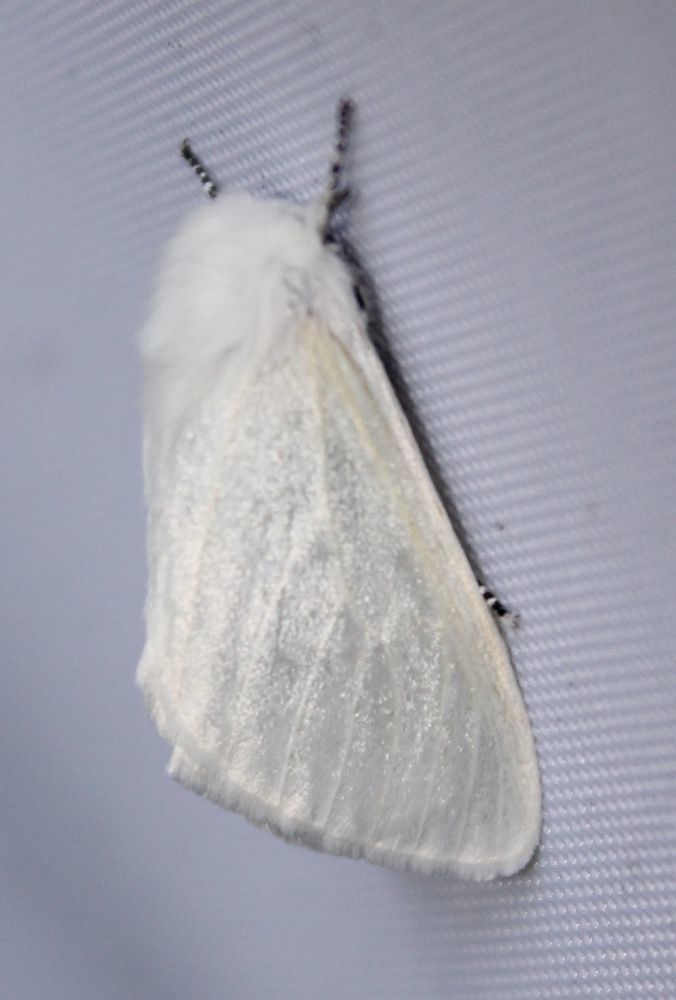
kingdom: Animalia
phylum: Arthropoda
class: Insecta
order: Lepidoptera
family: Erebidae
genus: Leucoma
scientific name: Leucoma salicis
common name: White satin moth
